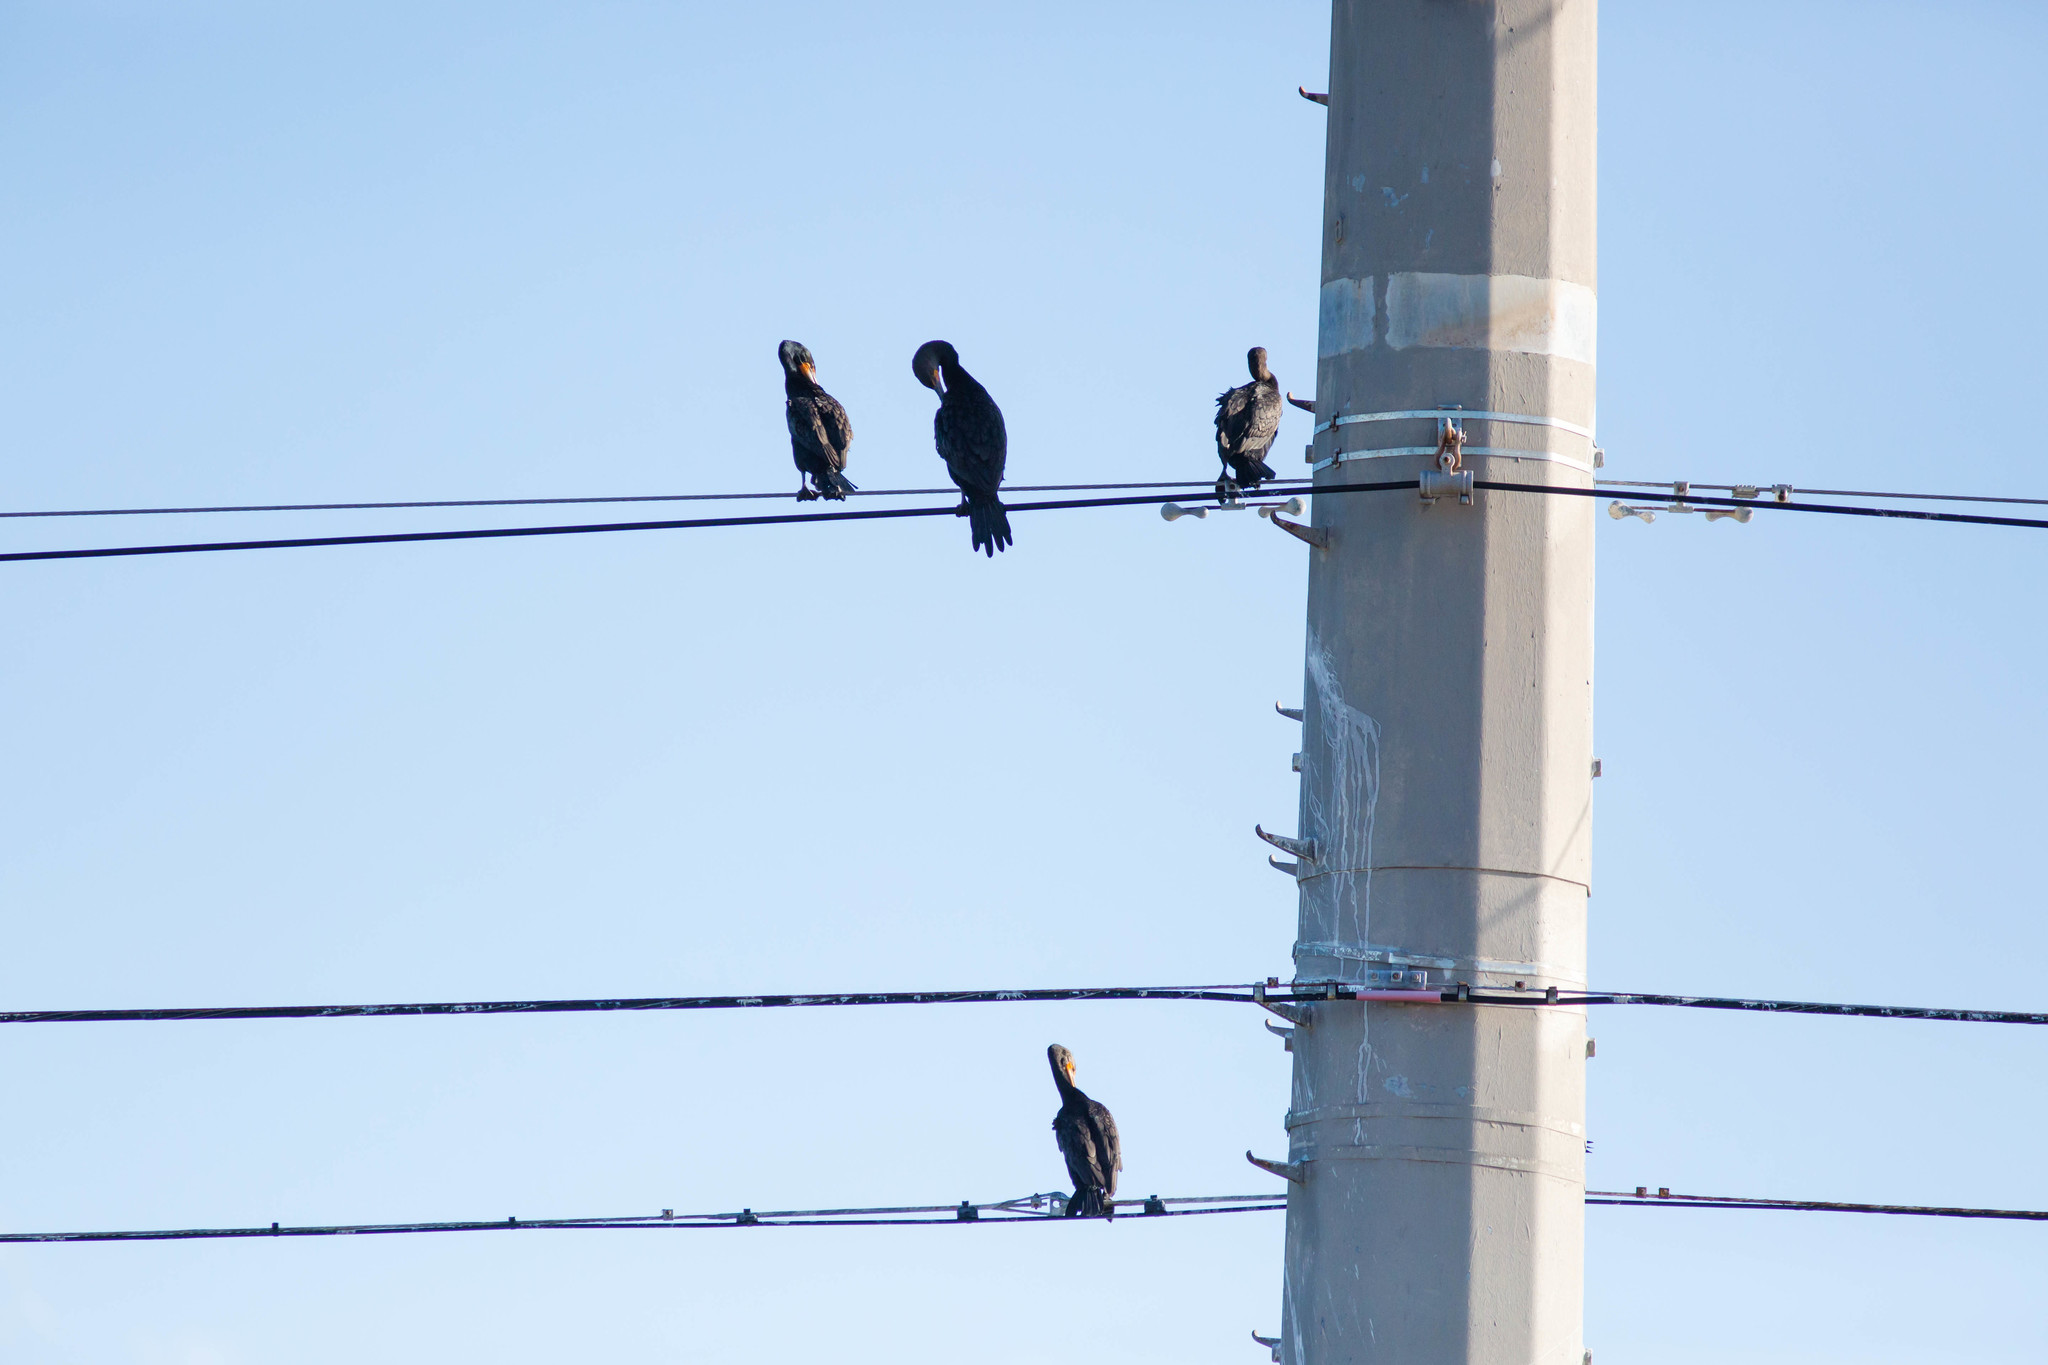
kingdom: Animalia
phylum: Chordata
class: Aves
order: Suliformes
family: Phalacrocoracidae
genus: Phalacrocorax
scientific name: Phalacrocorax auritus
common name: Double-crested cormorant
